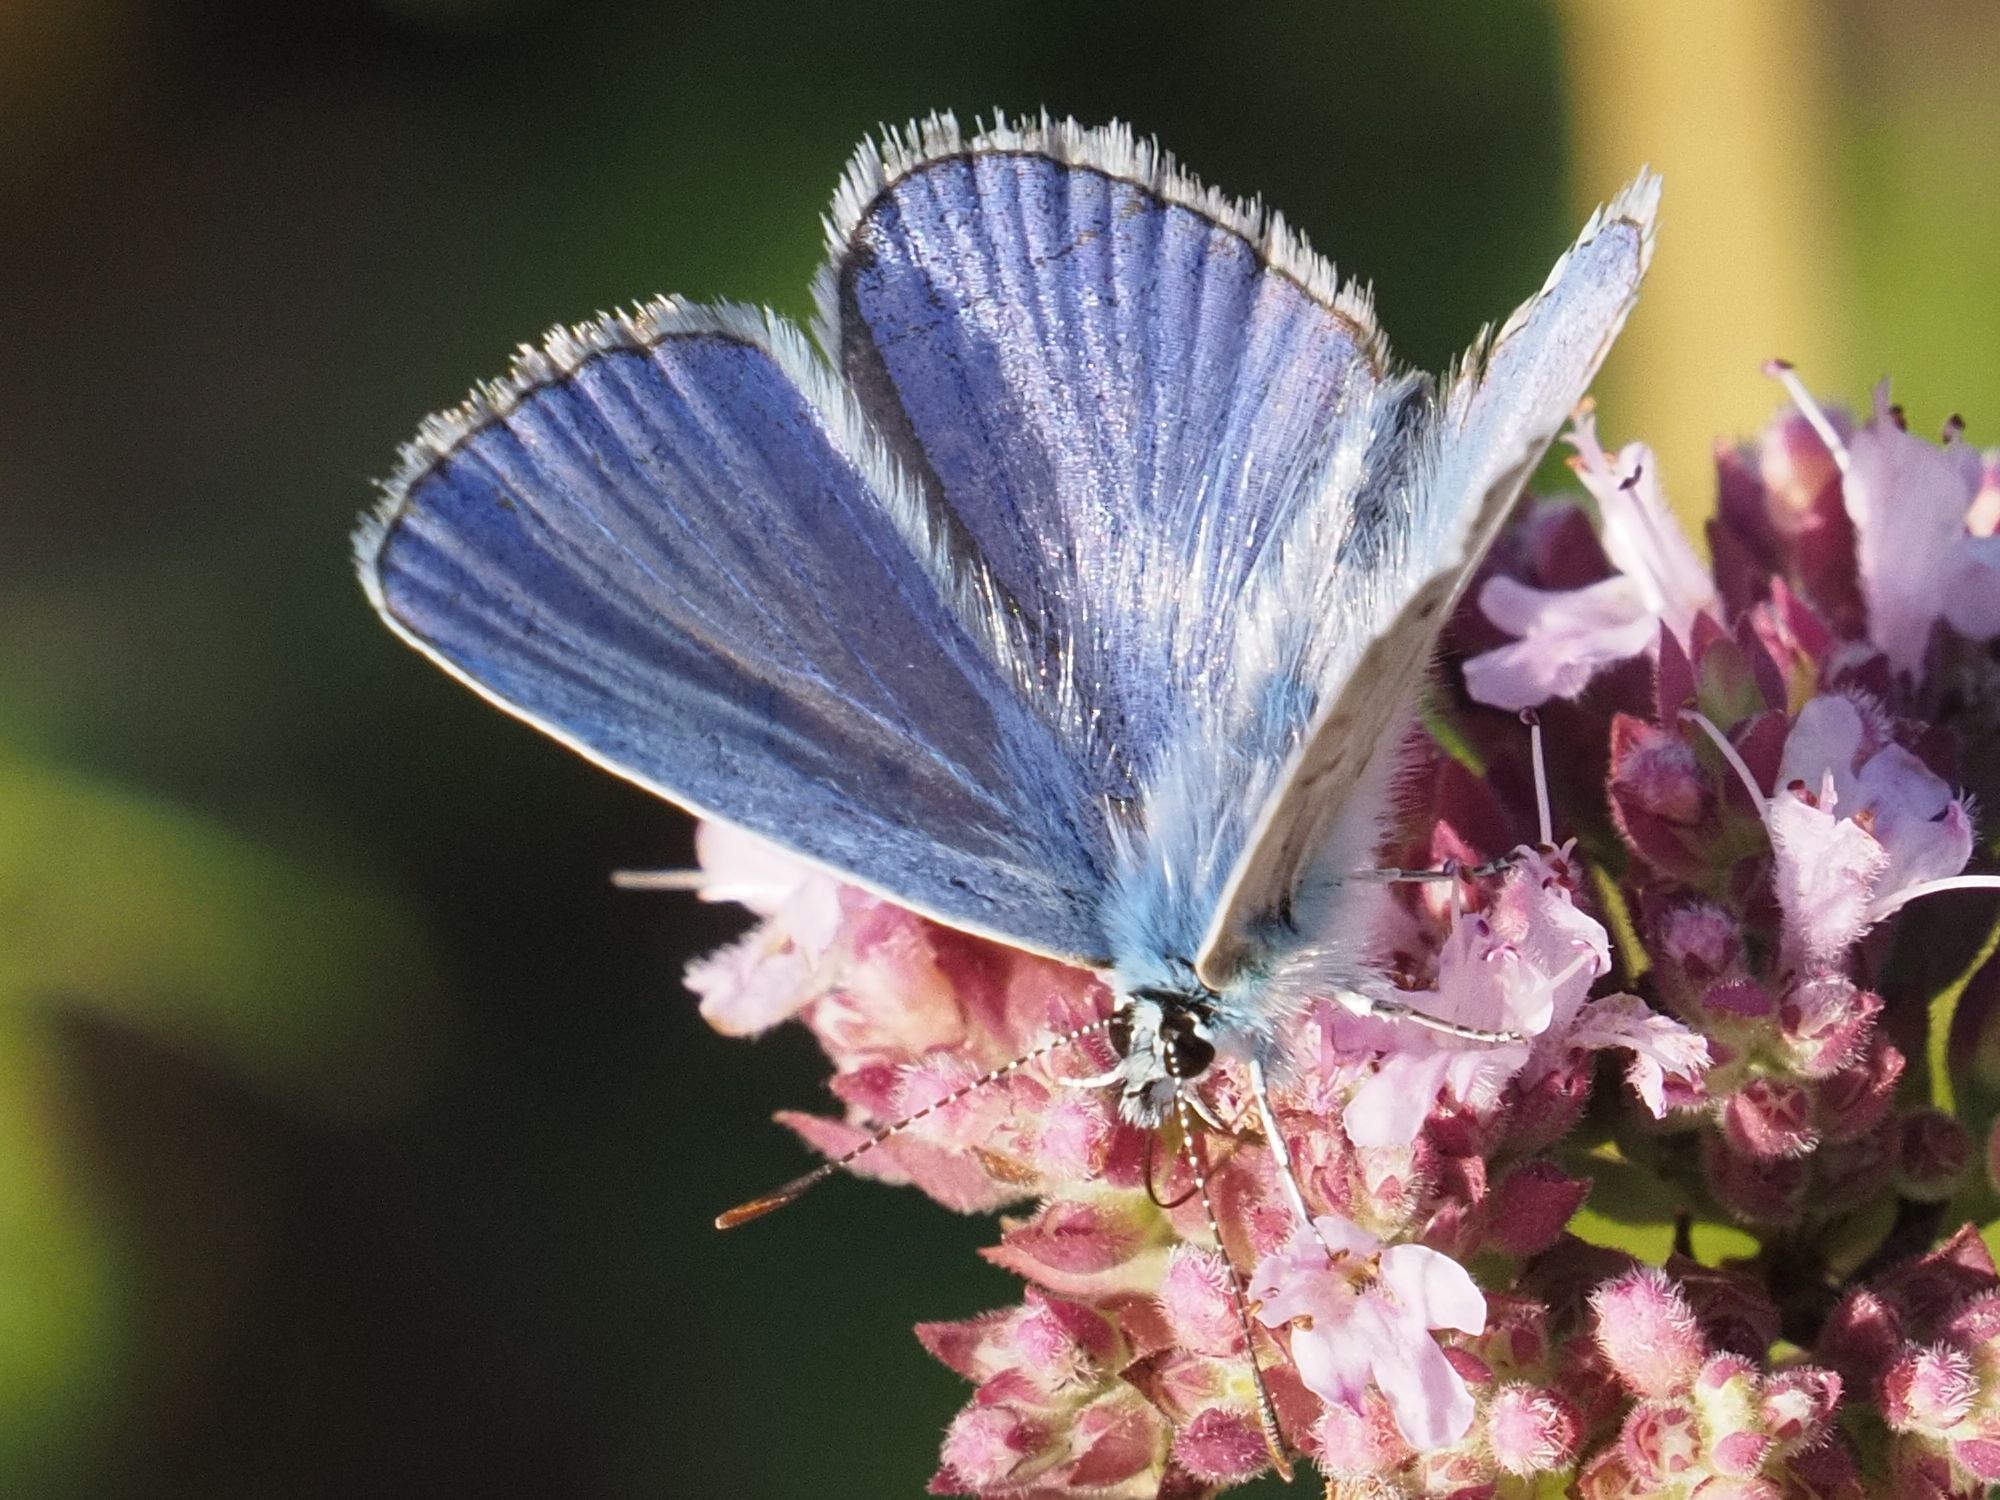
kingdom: Animalia
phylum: Arthropoda
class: Insecta
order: Lepidoptera
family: Lycaenidae
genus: Polyommatus
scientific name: Polyommatus icarus
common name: Common blue
